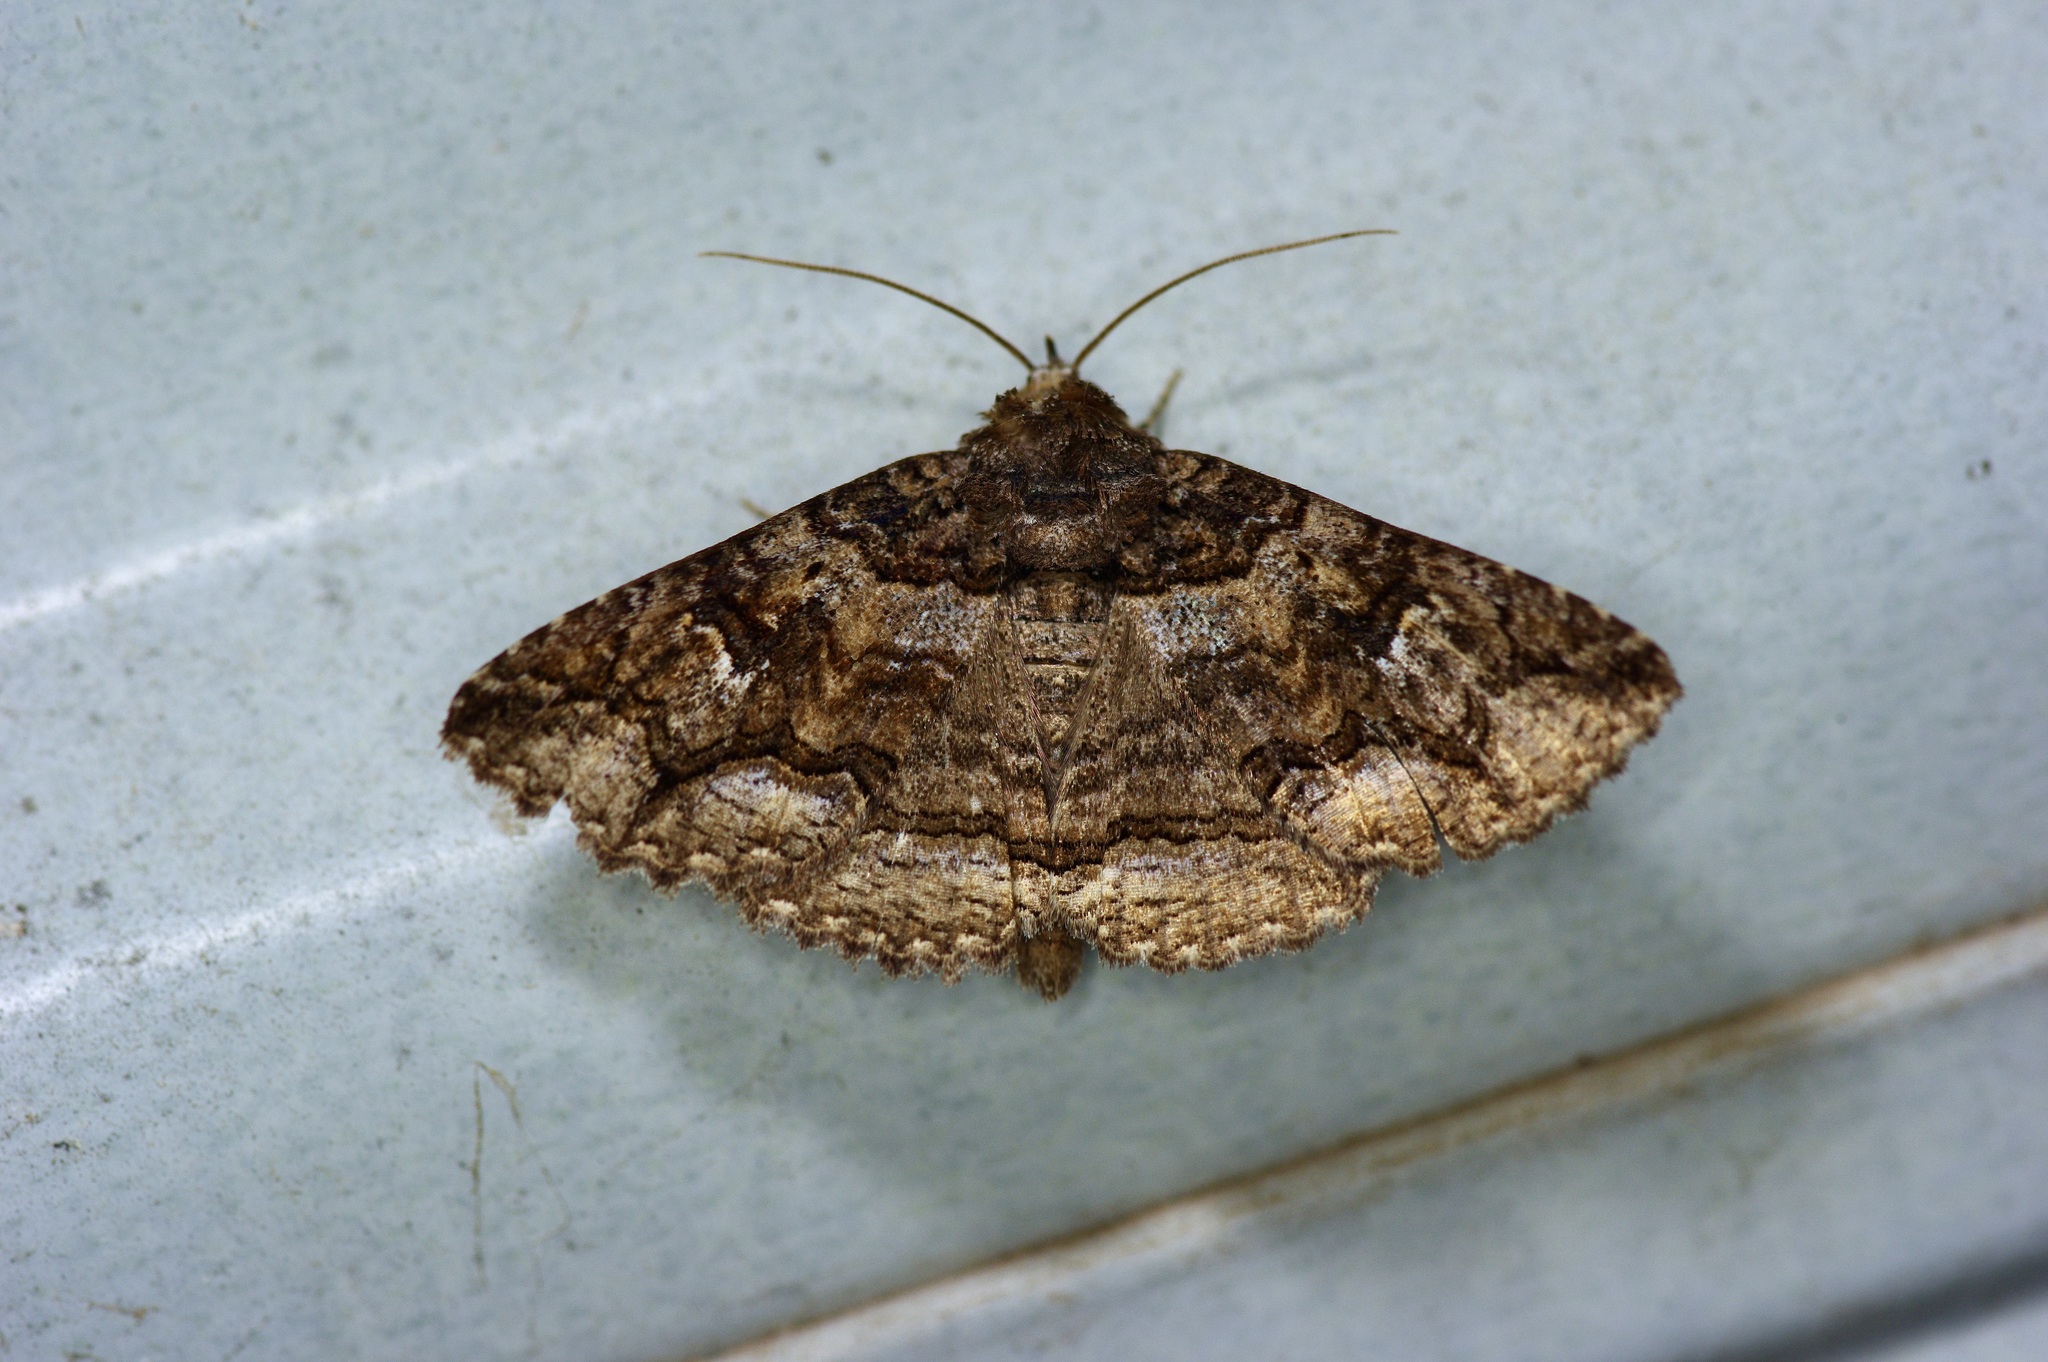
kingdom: Animalia
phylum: Arthropoda
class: Insecta
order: Lepidoptera
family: Erebidae
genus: Zale
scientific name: Zale edusina
